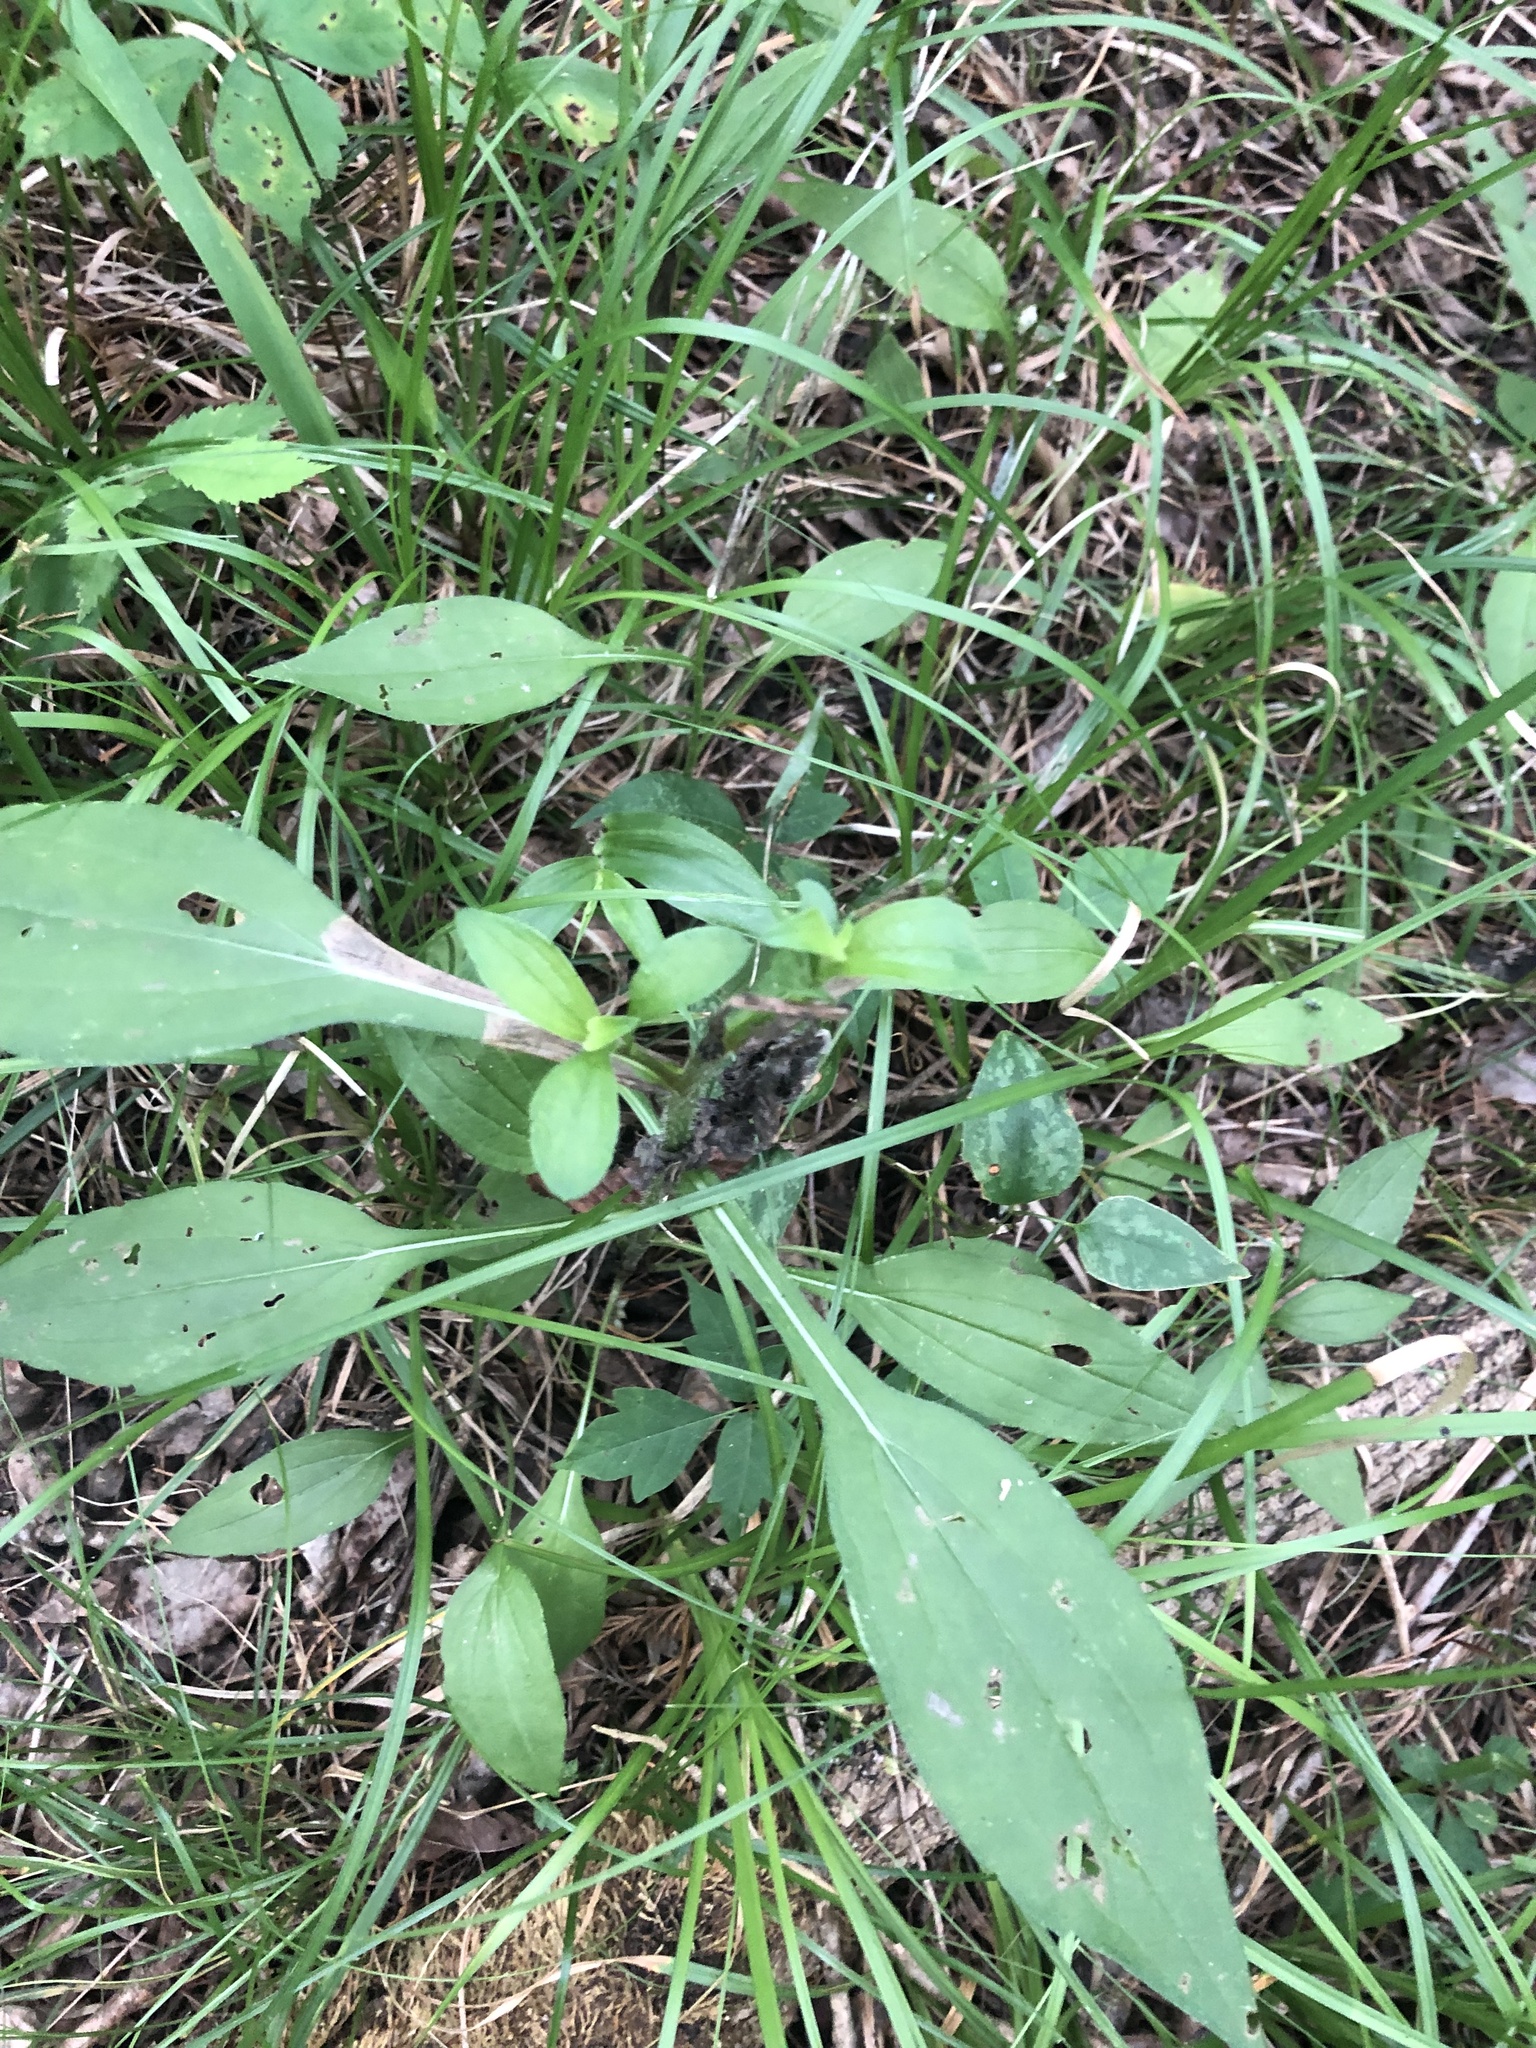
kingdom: Plantae
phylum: Tracheophyta
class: Magnoliopsida
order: Asterales
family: Asteraceae
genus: Rudbeckia
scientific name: Rudbeckia terranigrae
